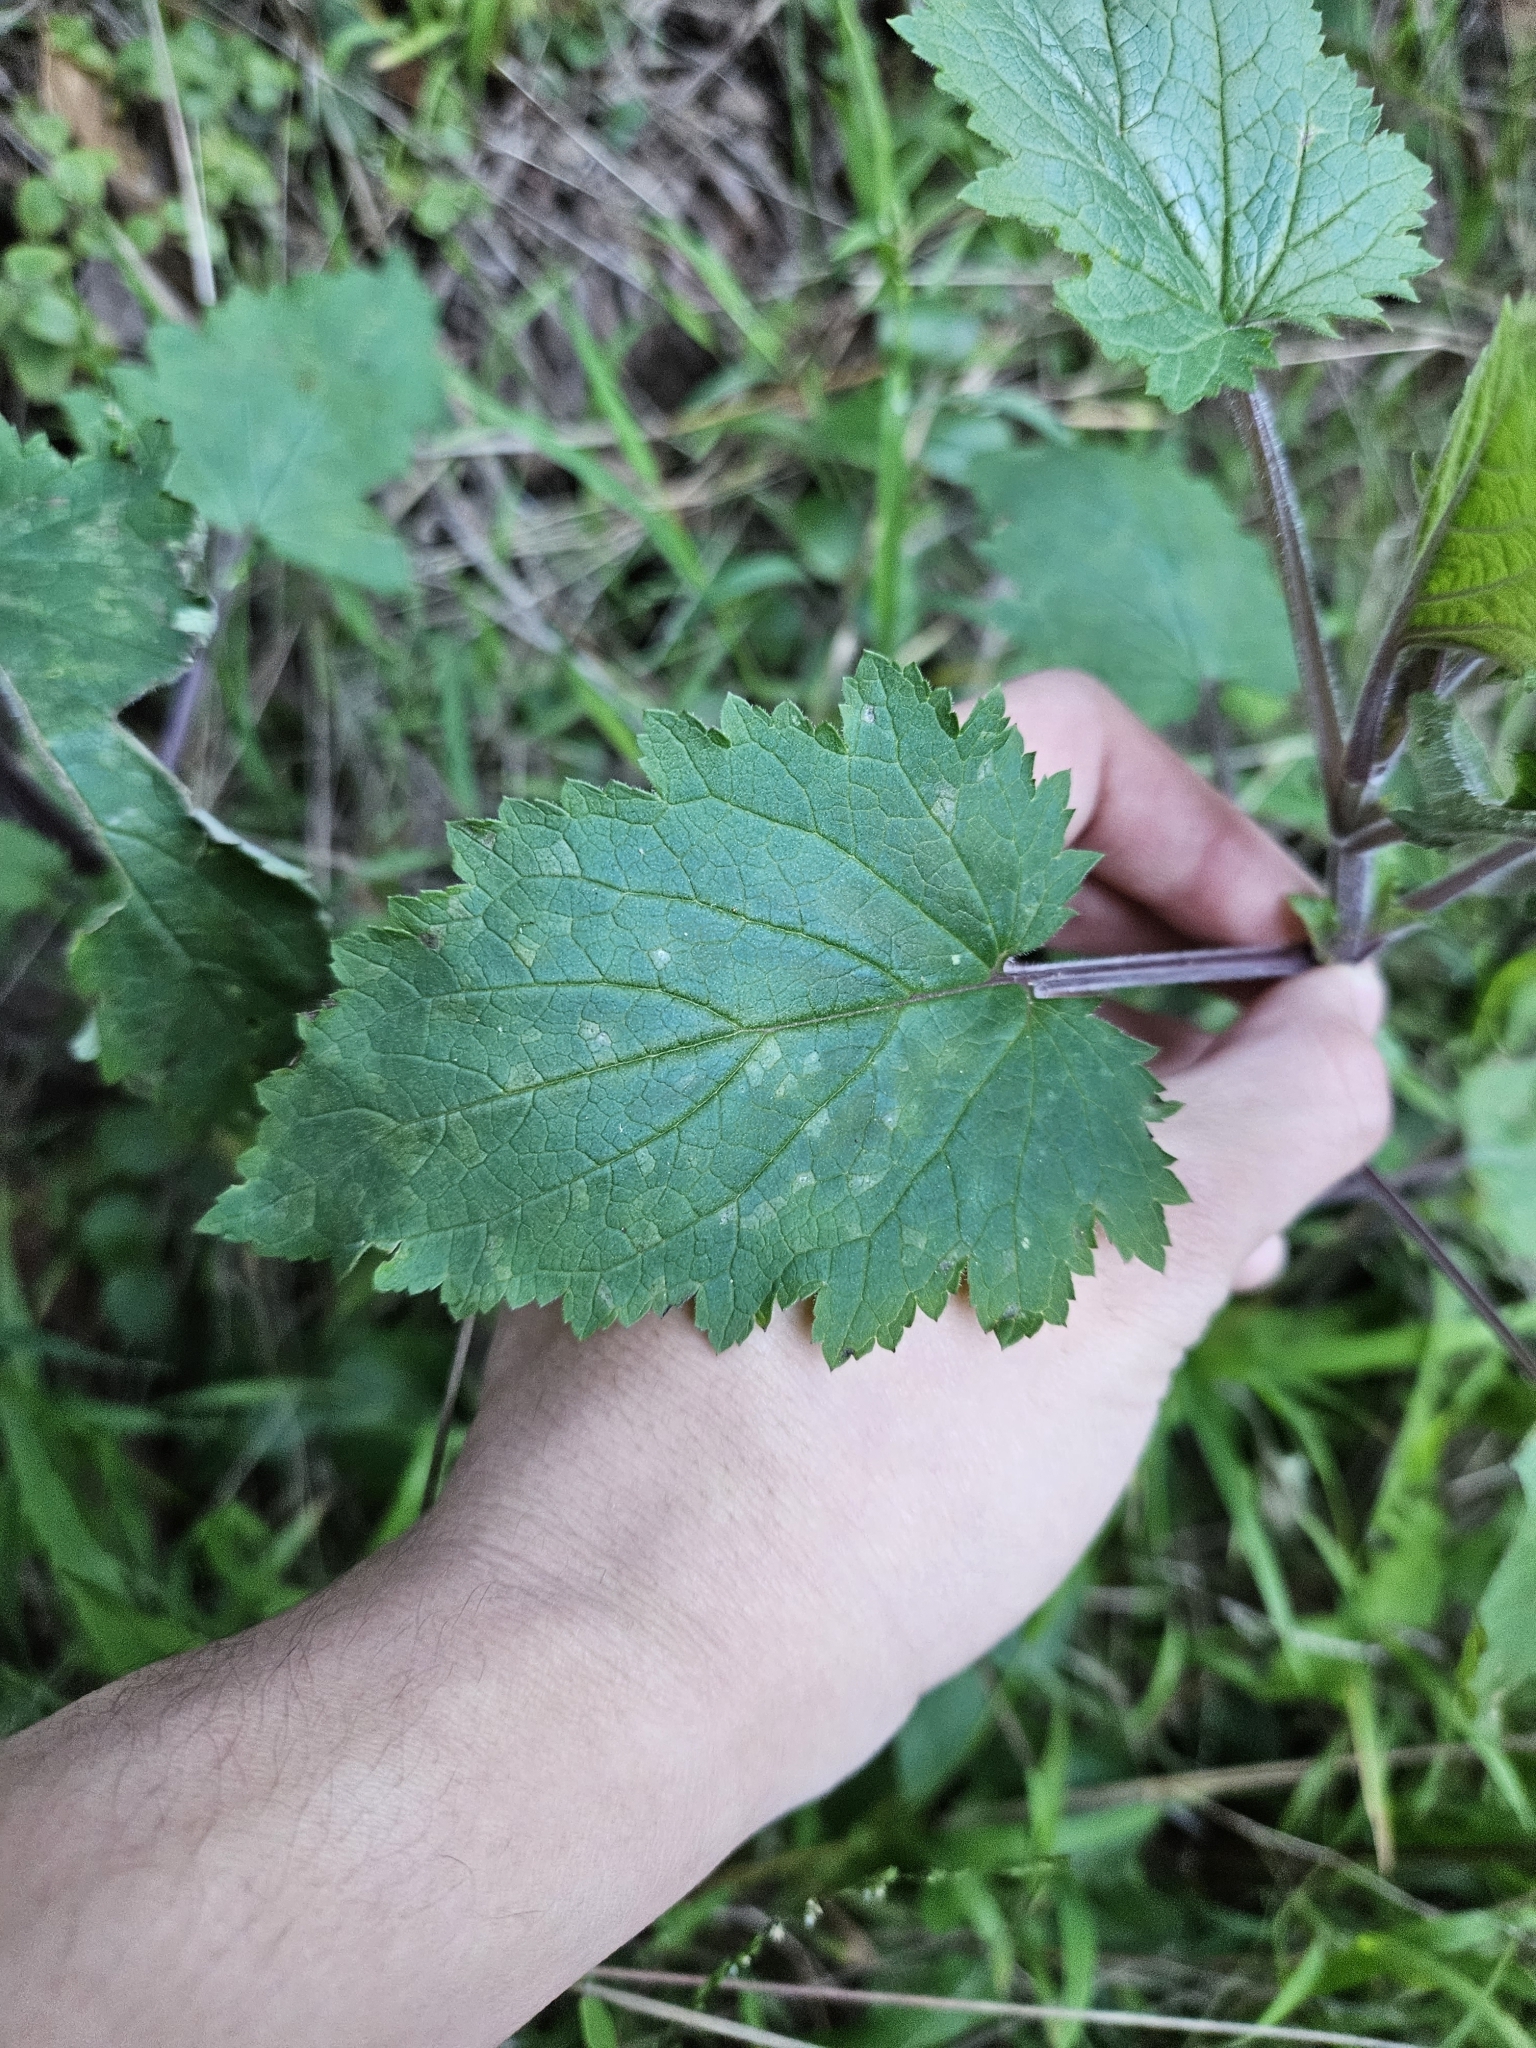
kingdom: Plantae
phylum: Tracheophyta
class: Magnoliopsida
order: Lamiales
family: Scrophulariaceae
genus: Scrophularia
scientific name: Scrophularia californica
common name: California figwort
